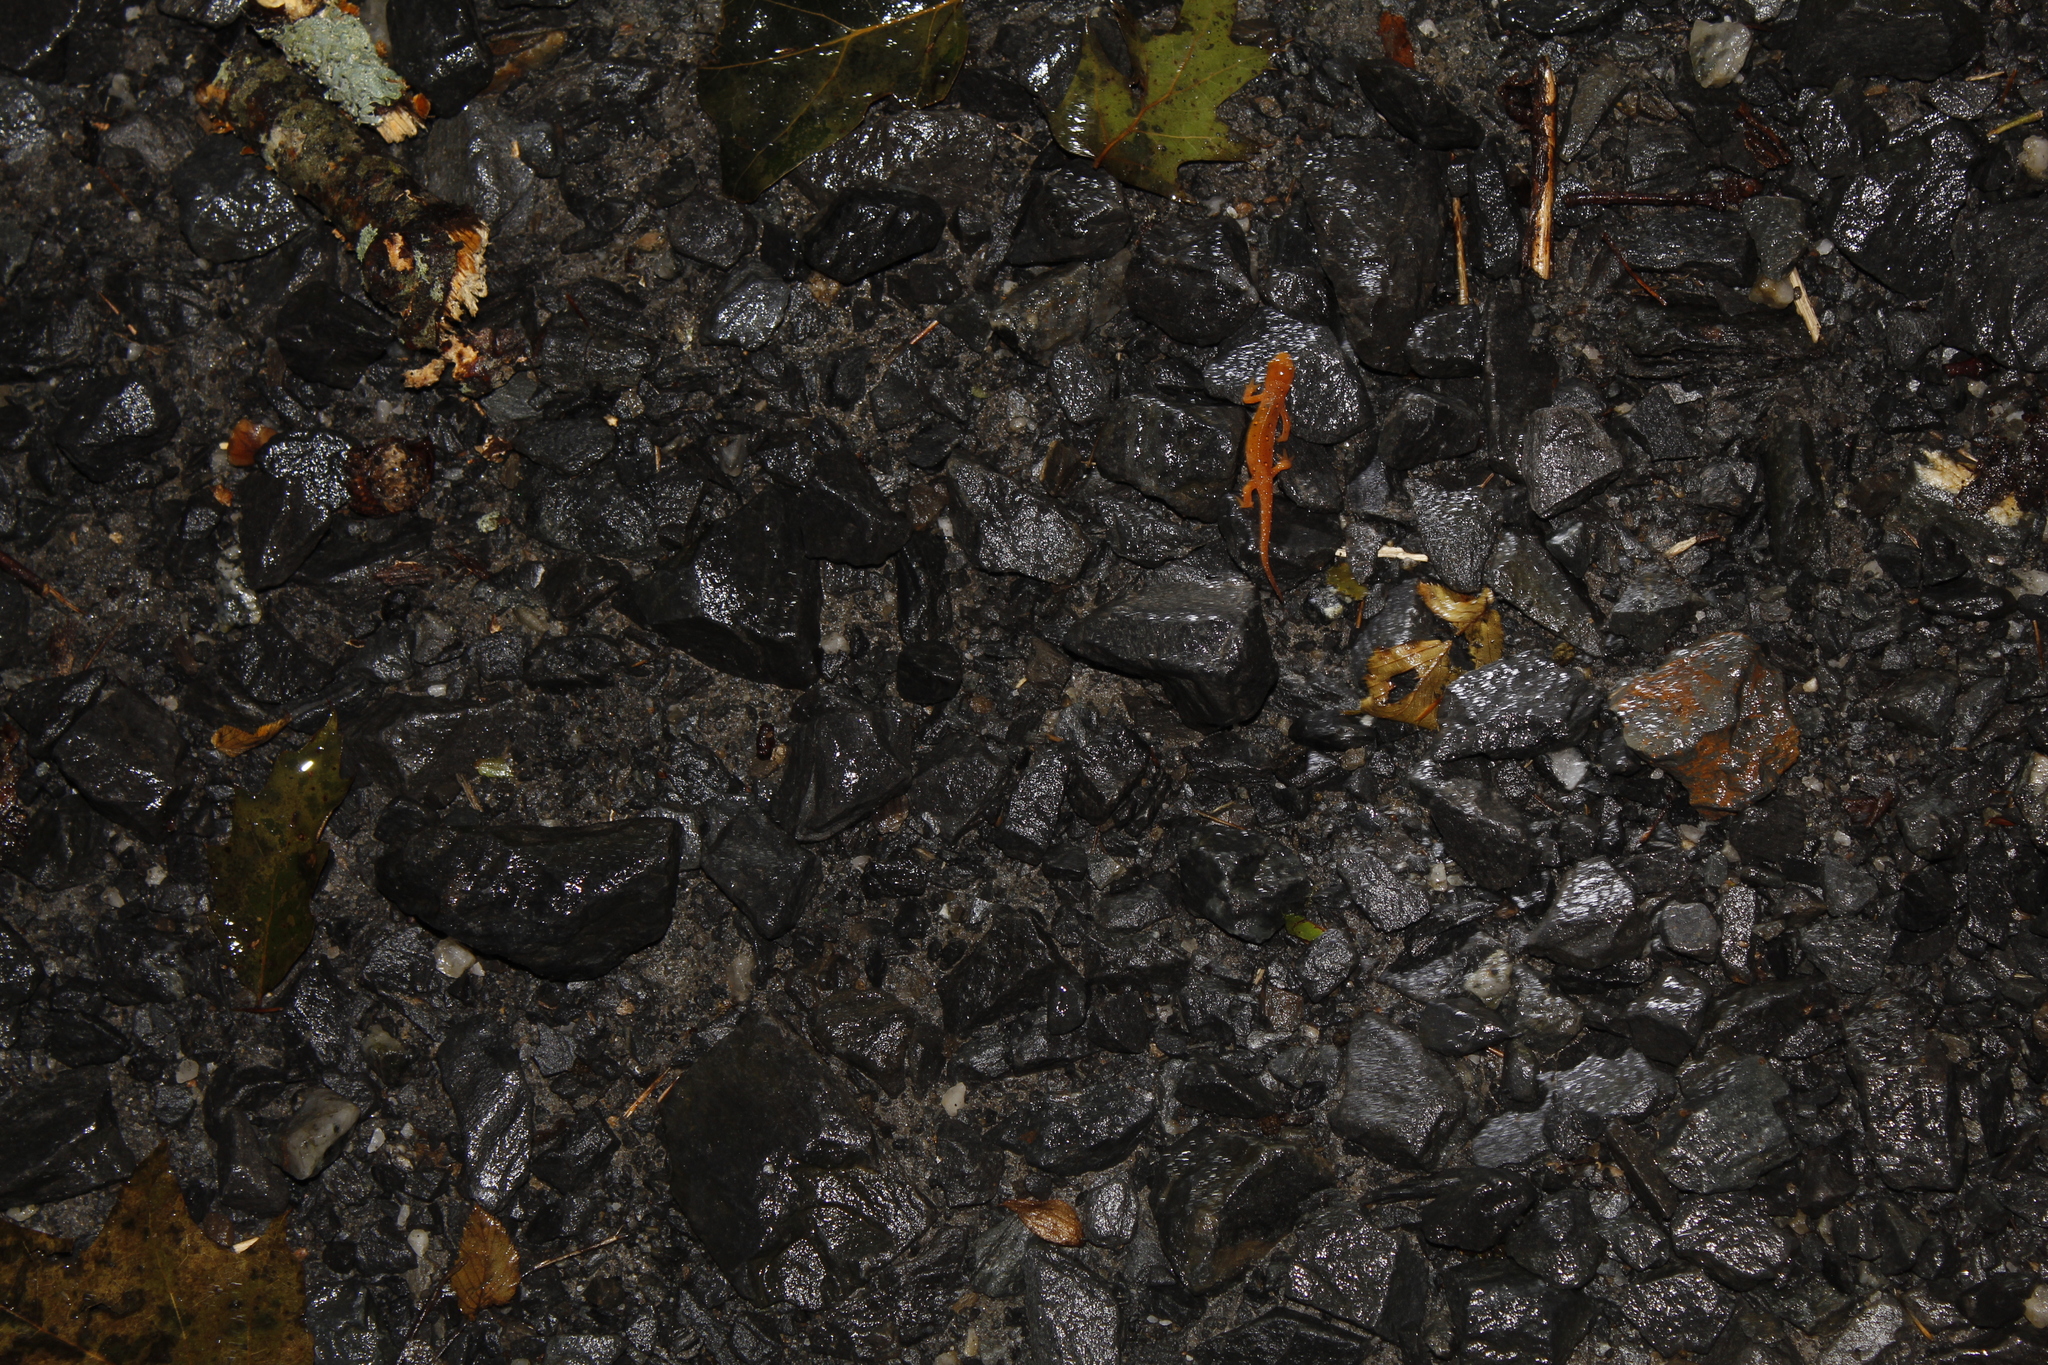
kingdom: Animalia
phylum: Chordata
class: Amphibia
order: Caudata
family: Salamandridae
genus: Notophthalmus
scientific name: Notophthalmus viridescens
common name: Eastern newt
